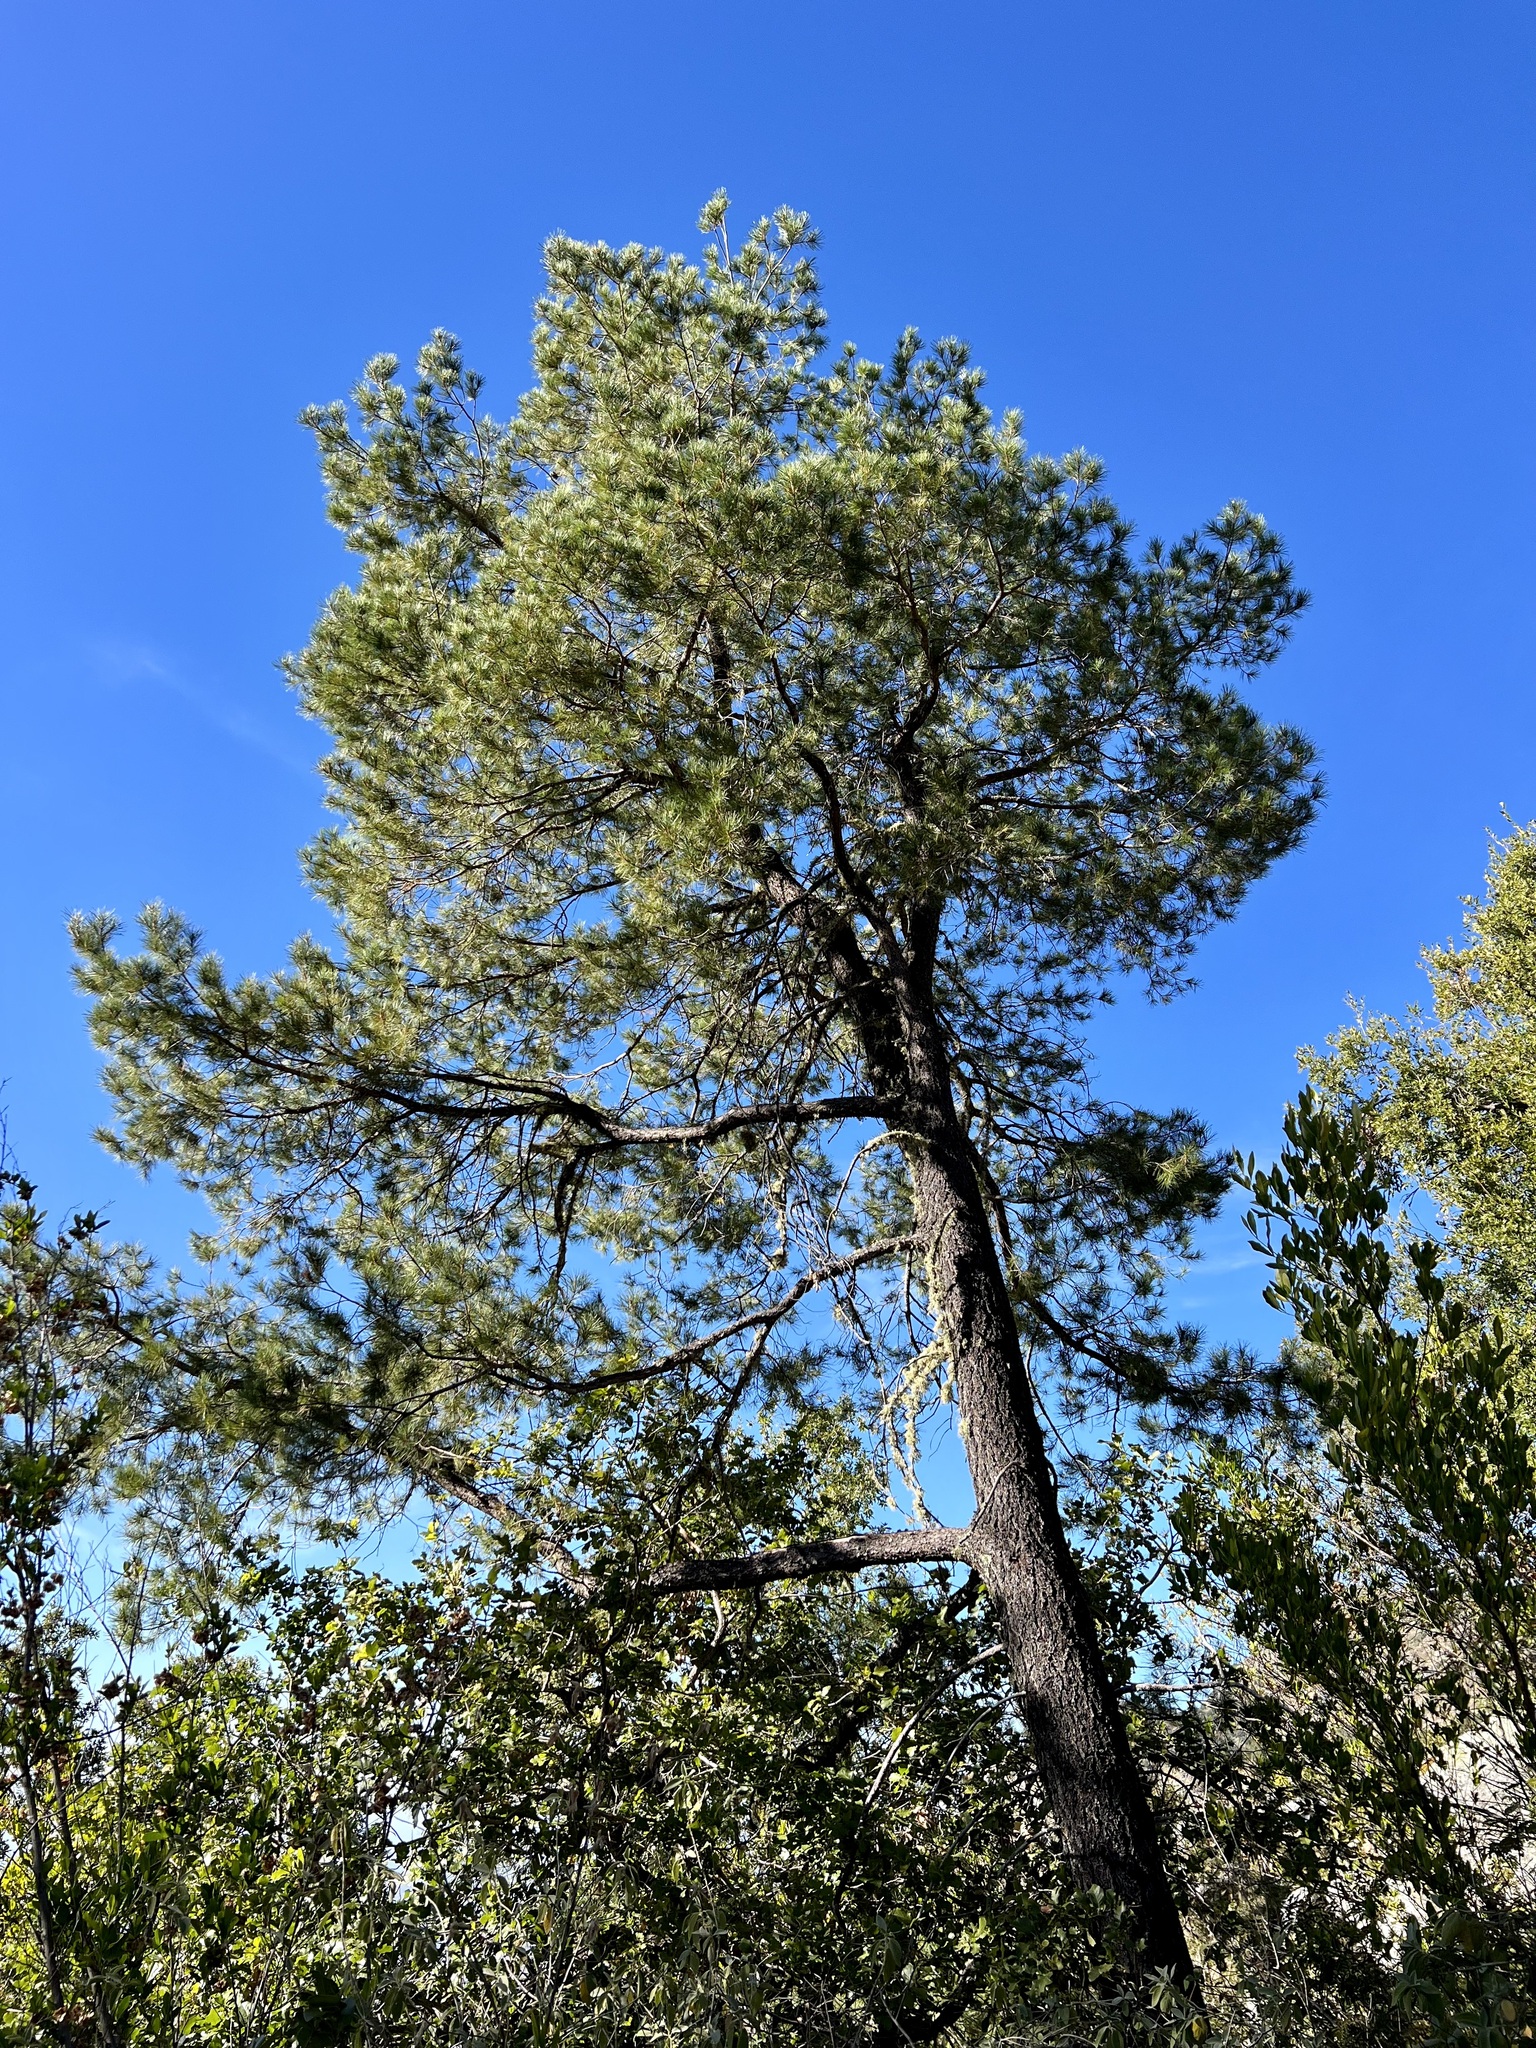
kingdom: Plantae
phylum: Tracheophyta
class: Pinopsida
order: Pinales
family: Pinaceae
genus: Pinus
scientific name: Pinus cembroides
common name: Mexican nut pine
